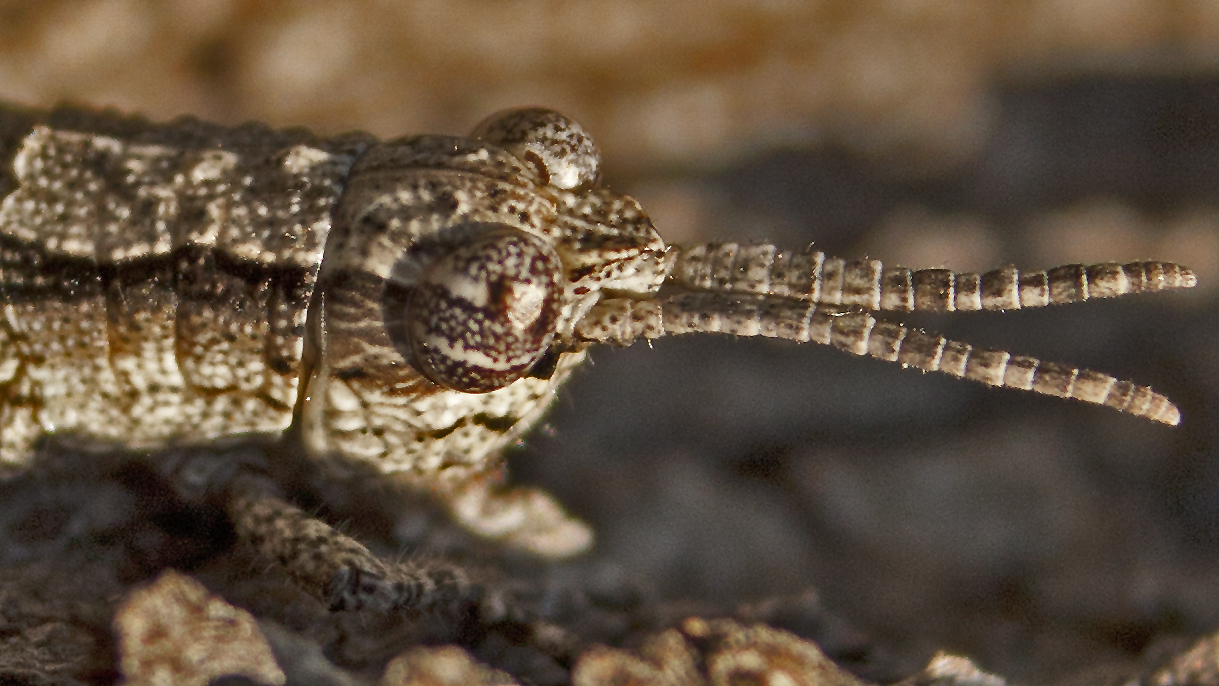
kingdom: Animalia
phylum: Arthropoda
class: Insecta
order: Orthoptera
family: Acrididae
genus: Coryphistes
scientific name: Coryphistes ruricola
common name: Bark-mimicking grasshopper
